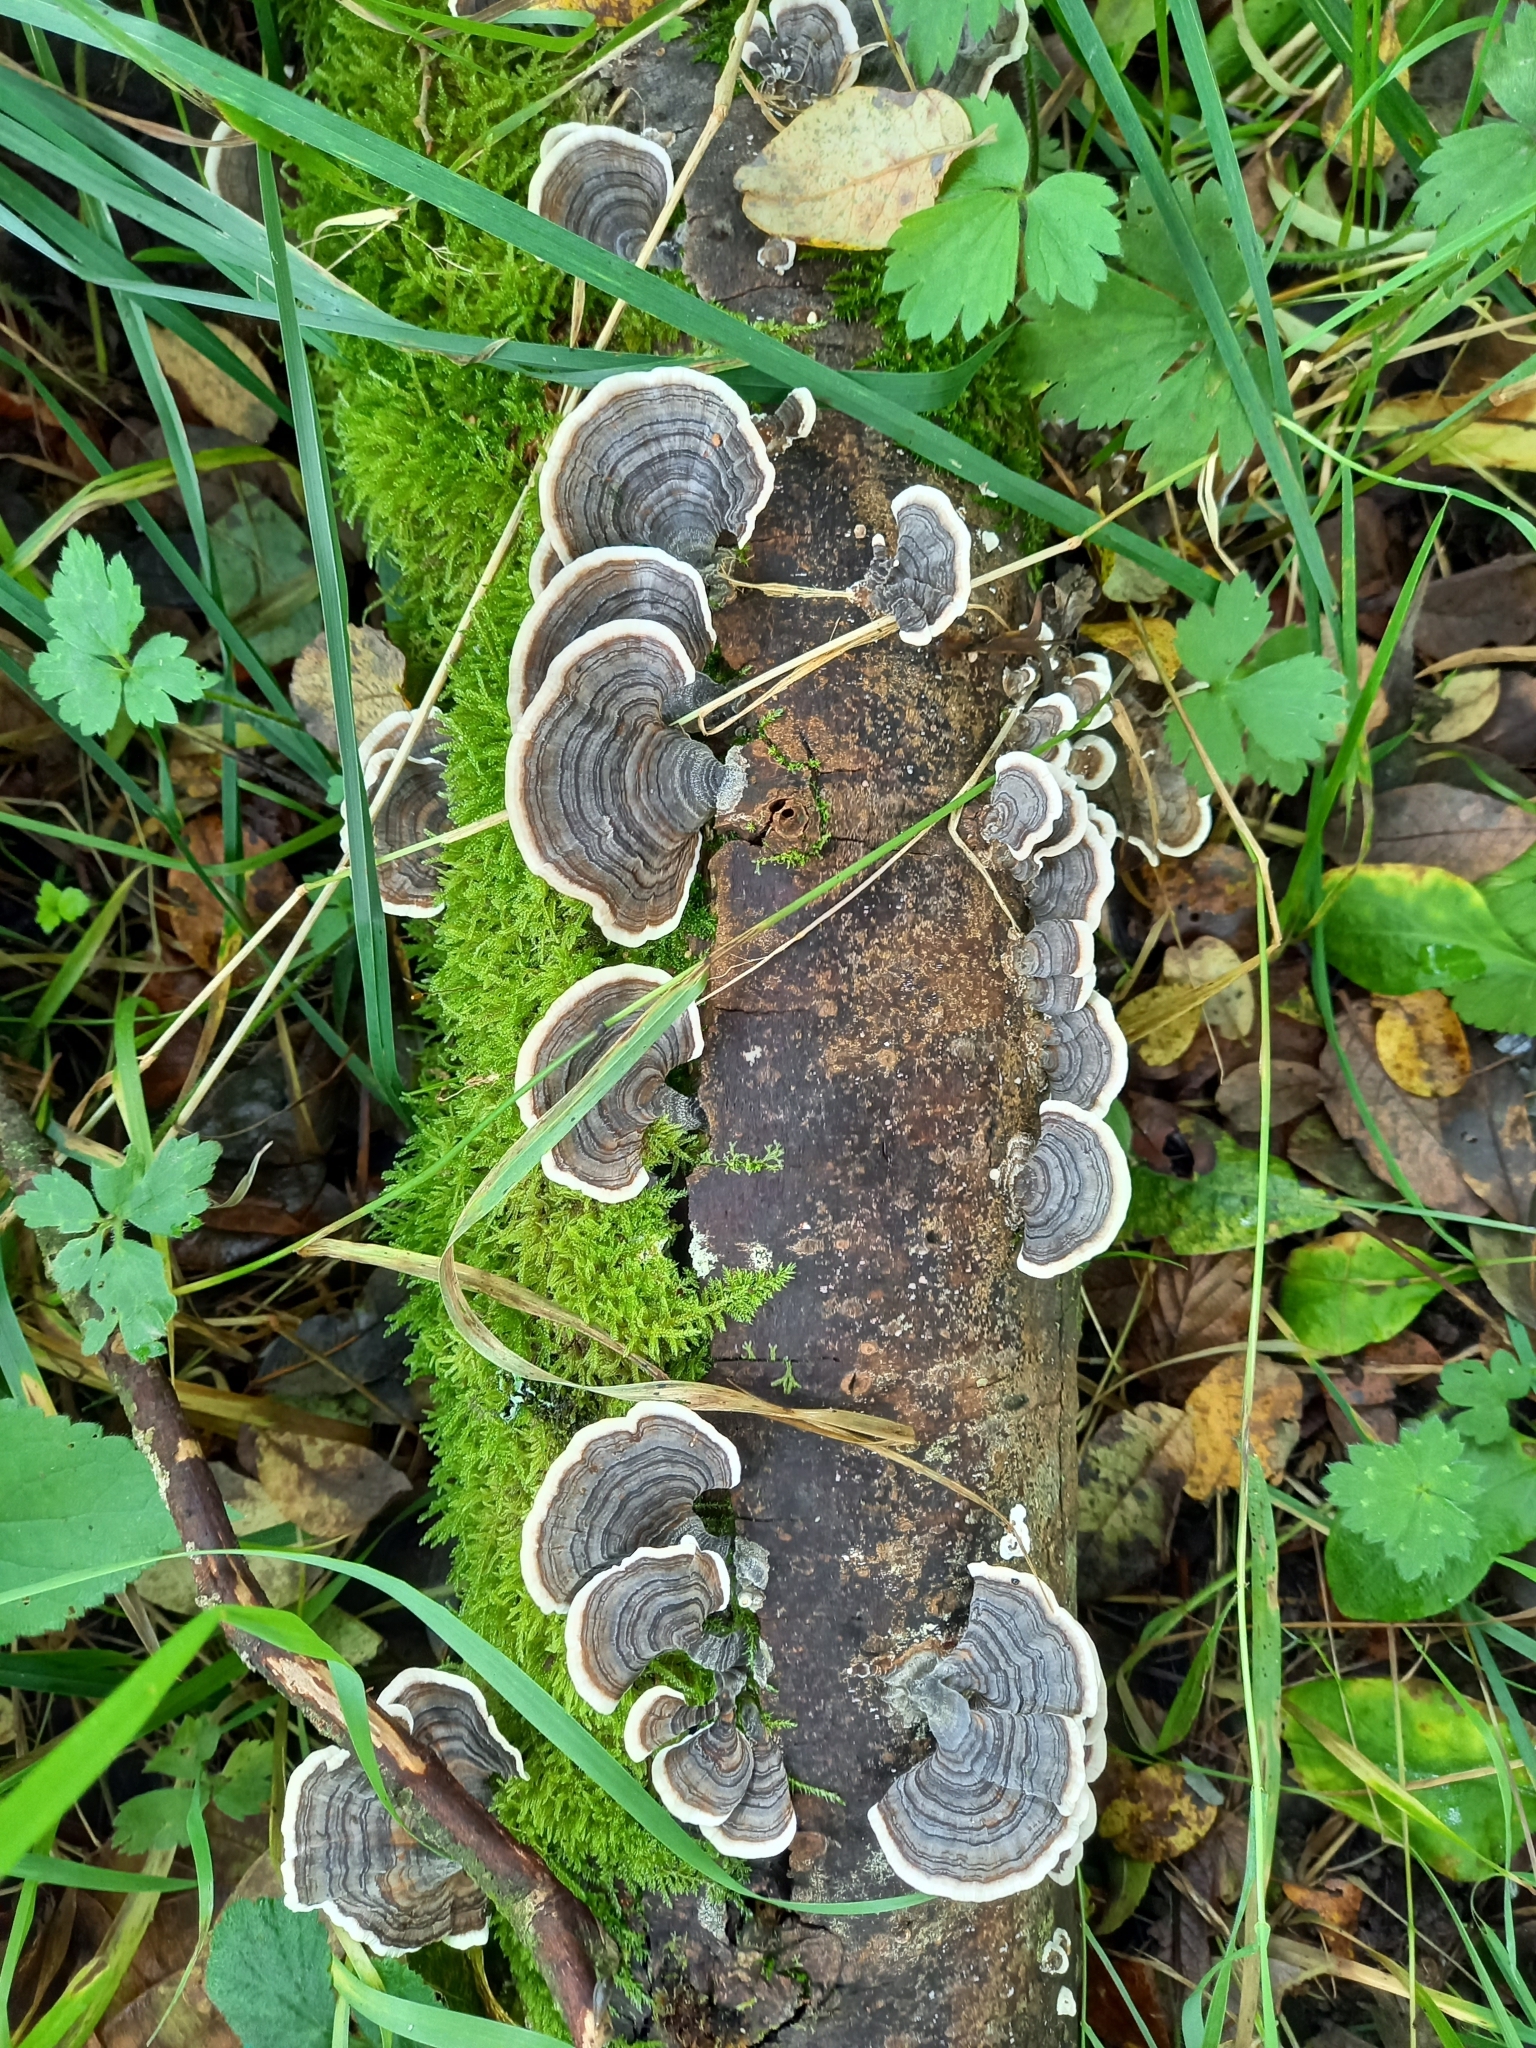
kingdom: Fungi
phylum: Basidiomycota
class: Agaricomycetes
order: Polyporales
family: Polyporaceae
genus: Trametes
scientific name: Trametes versicolor
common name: Turkeytail
